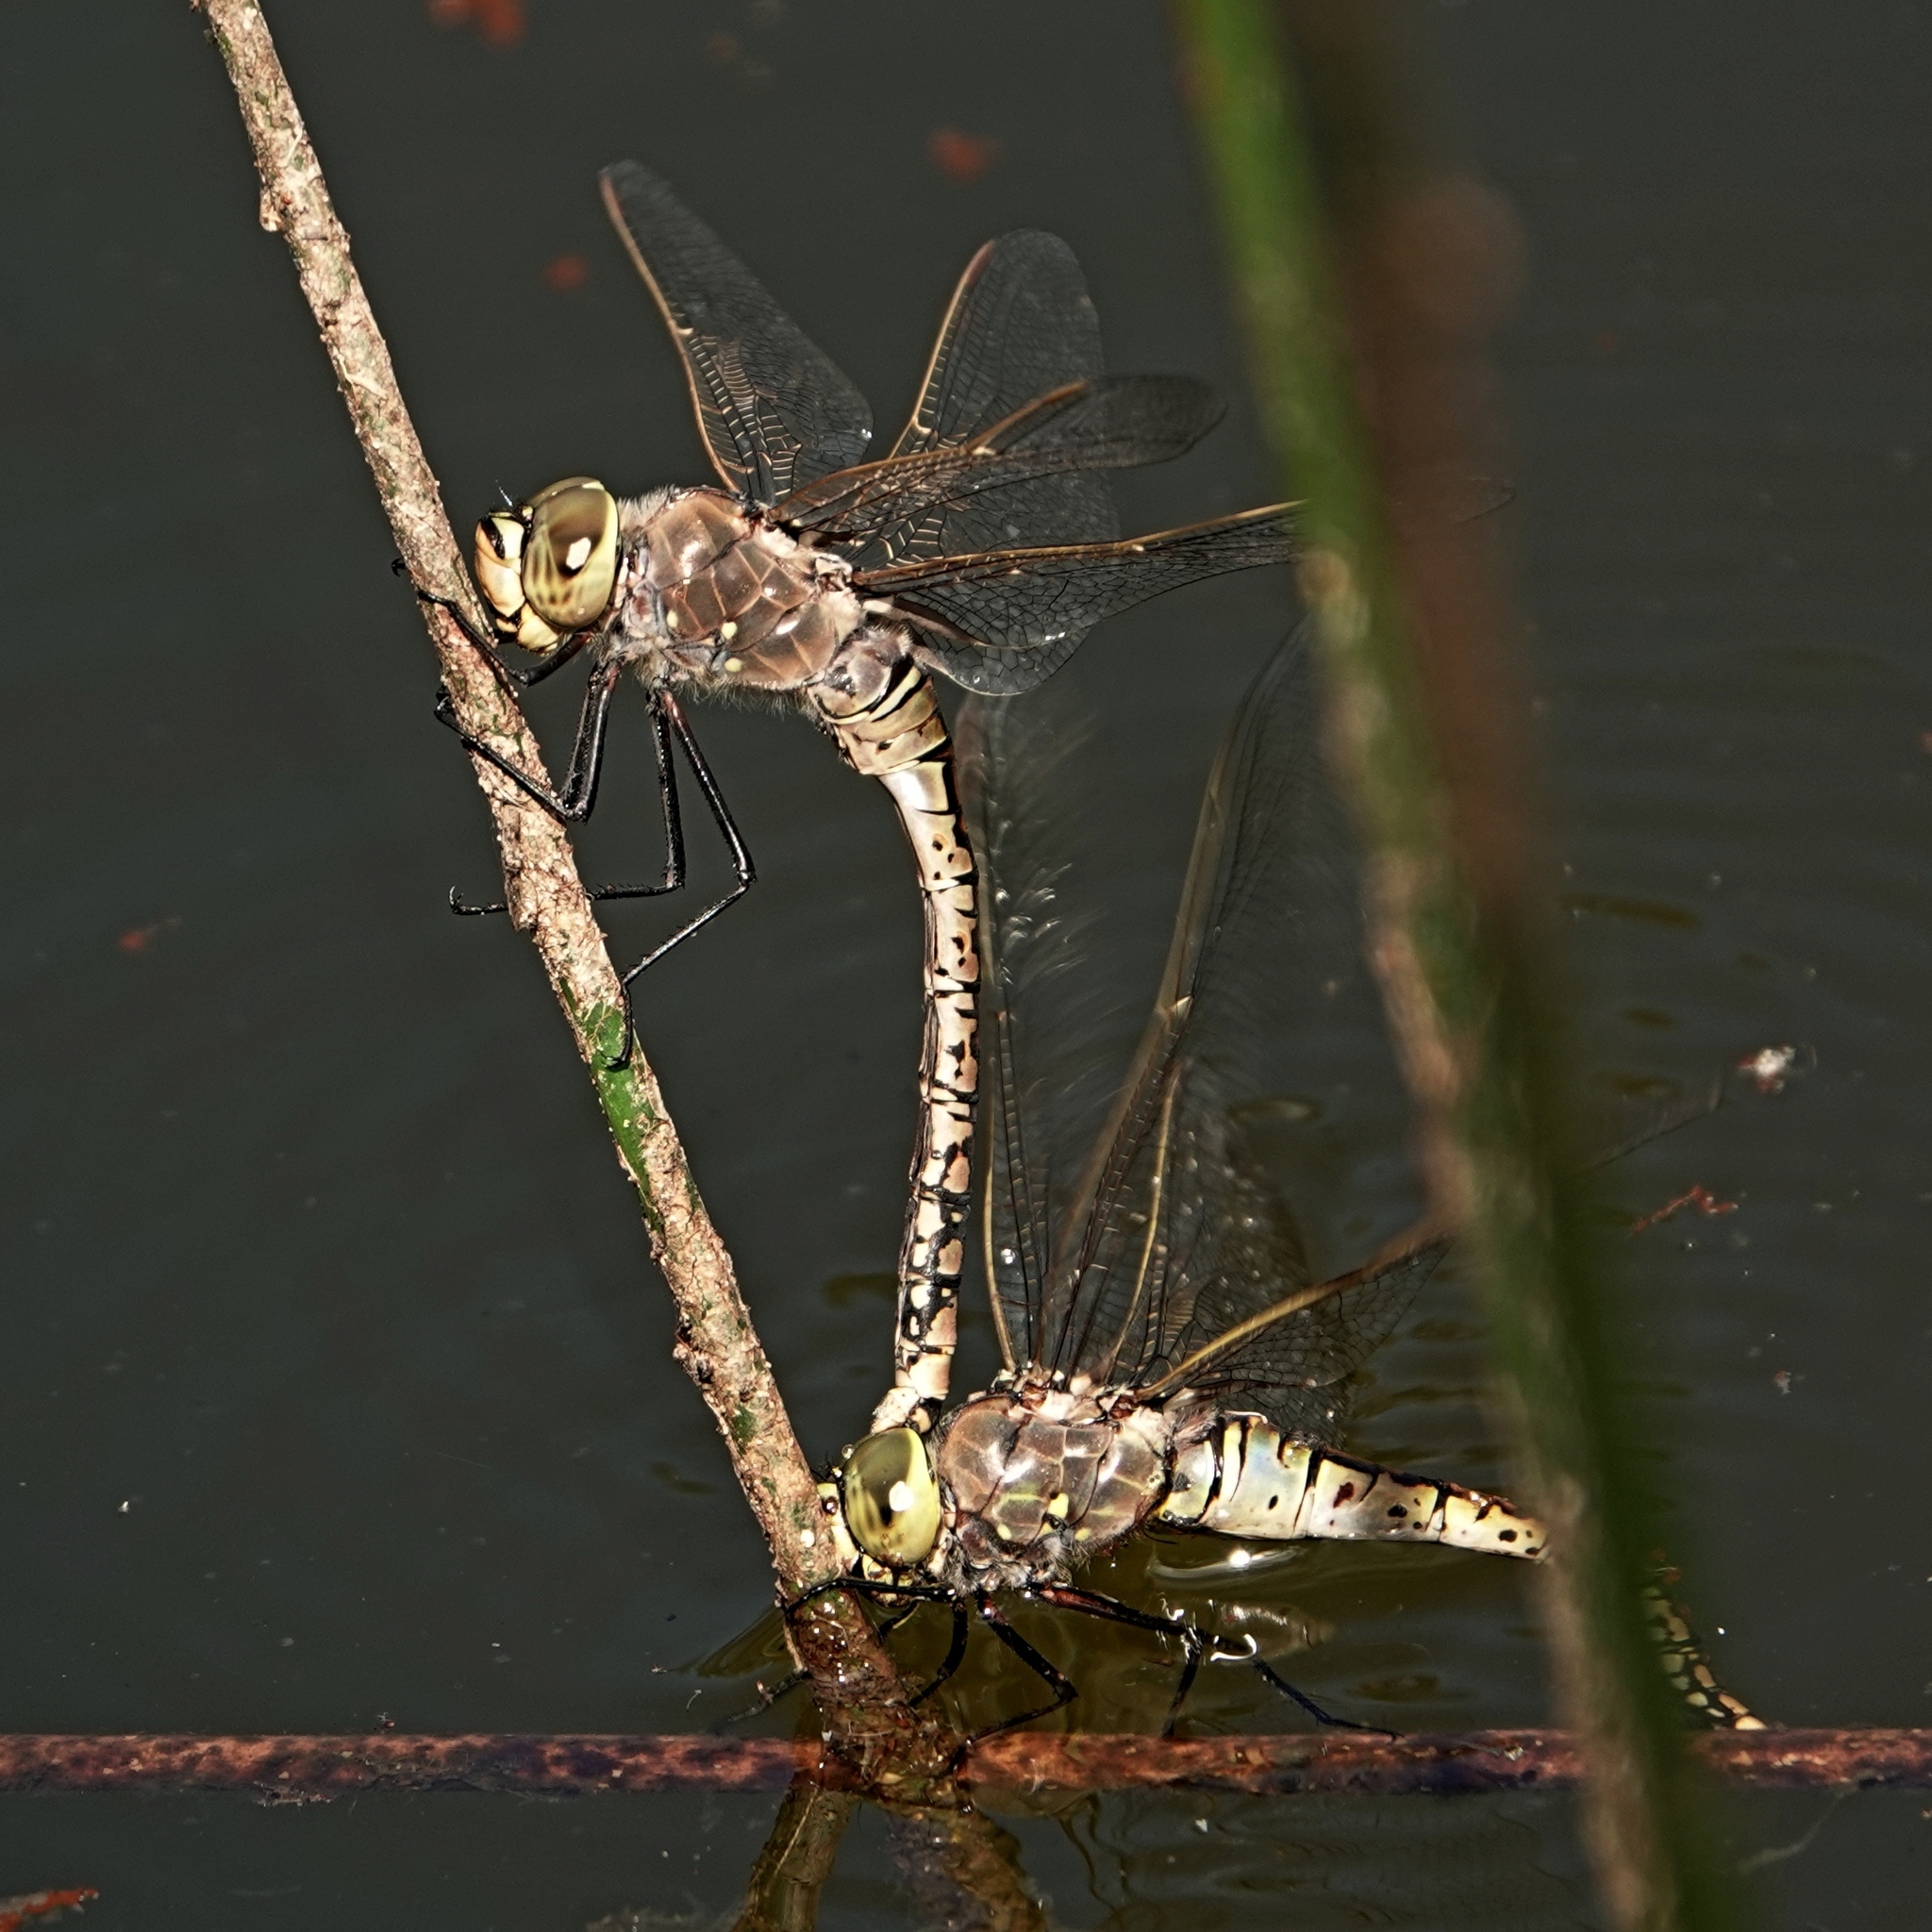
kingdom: Animalia
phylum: Arthropoda
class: Insecta
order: Odonata
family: Aeshnidae
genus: Anax
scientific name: Anax papuensis
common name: Australian emperor
